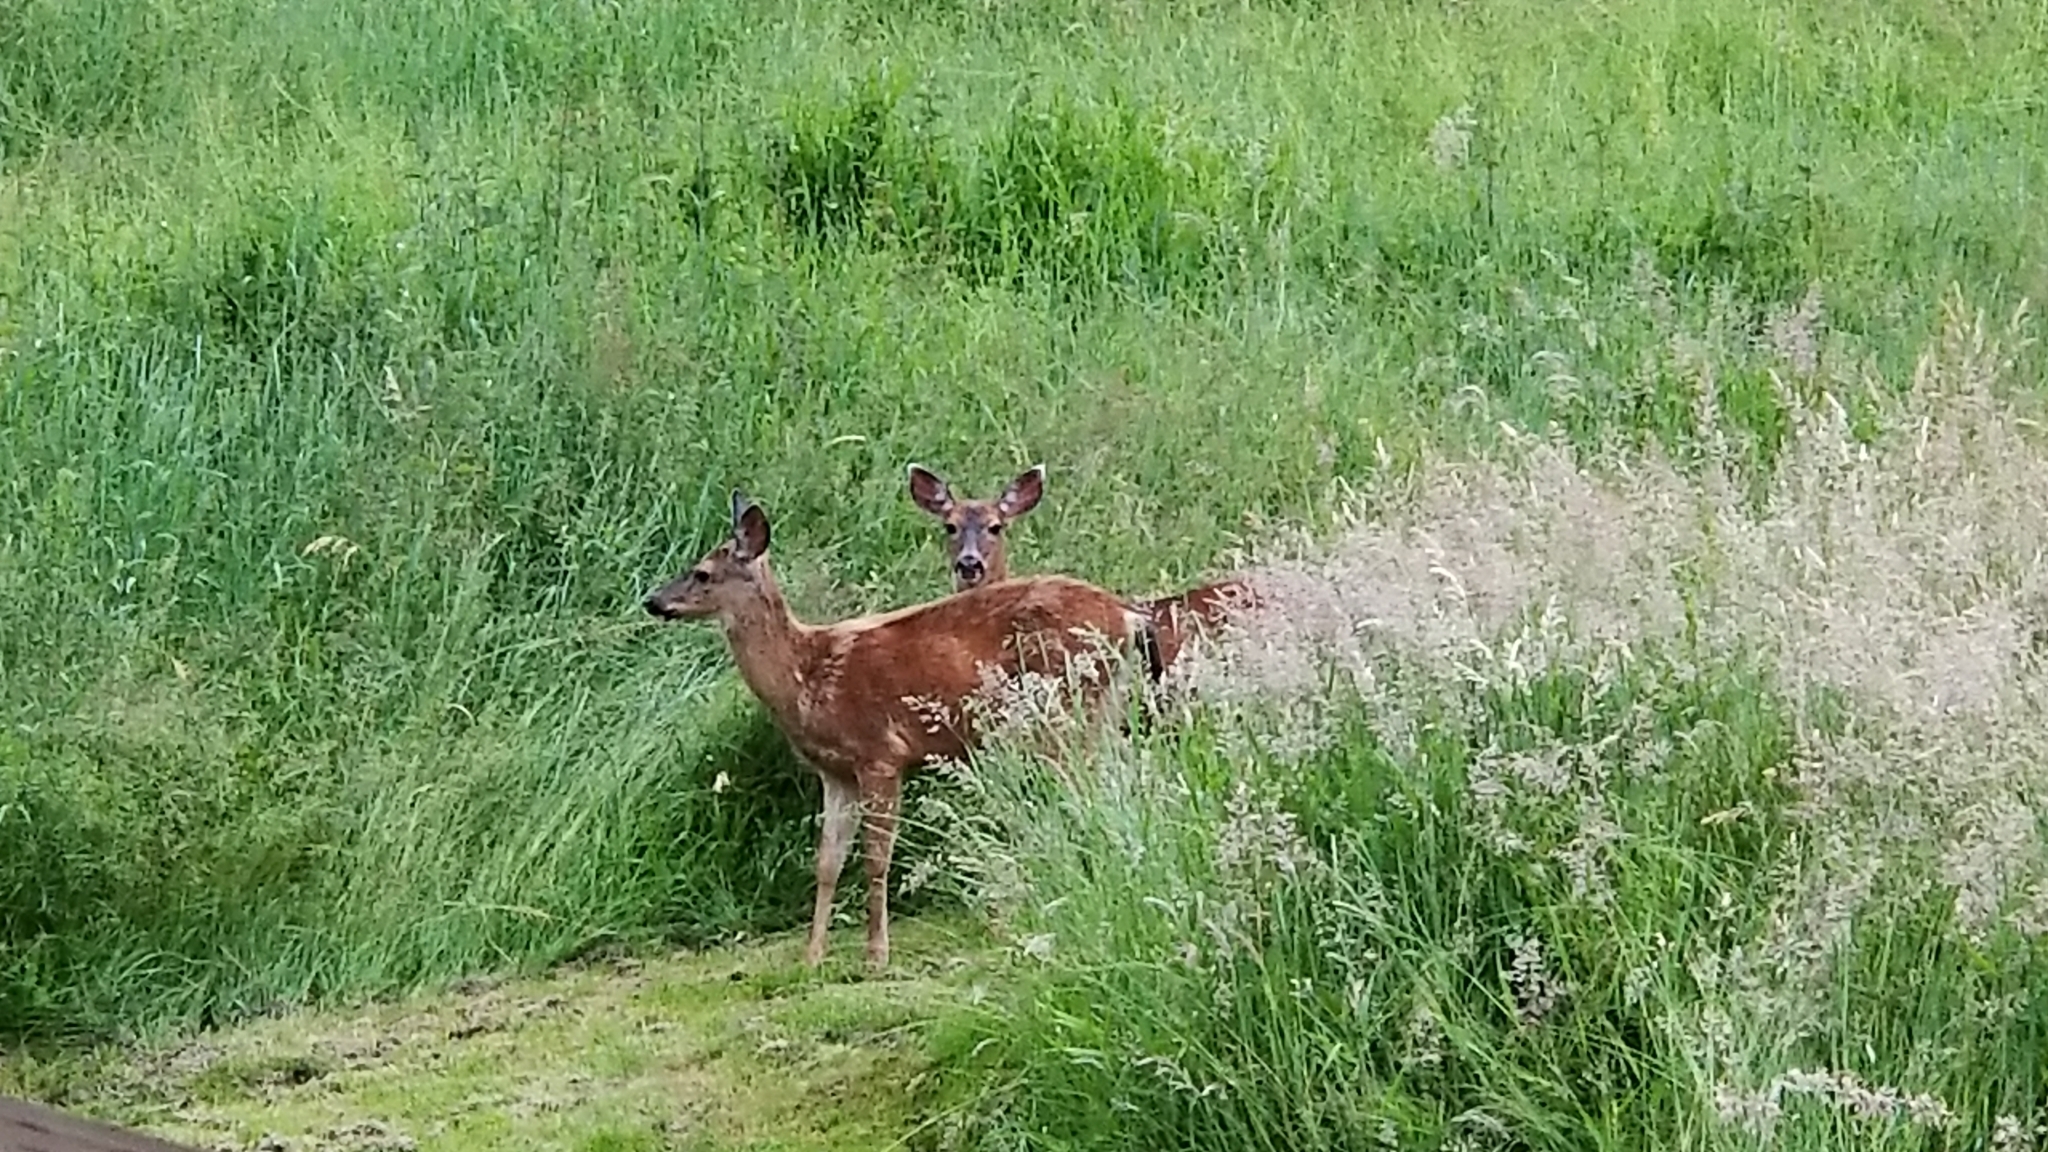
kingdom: Animalia
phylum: Chordata
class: Mammalia
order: Artiodactyla
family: Cervidae
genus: Odocoileus
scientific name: Odocoileus hemionus
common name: Mule deer
